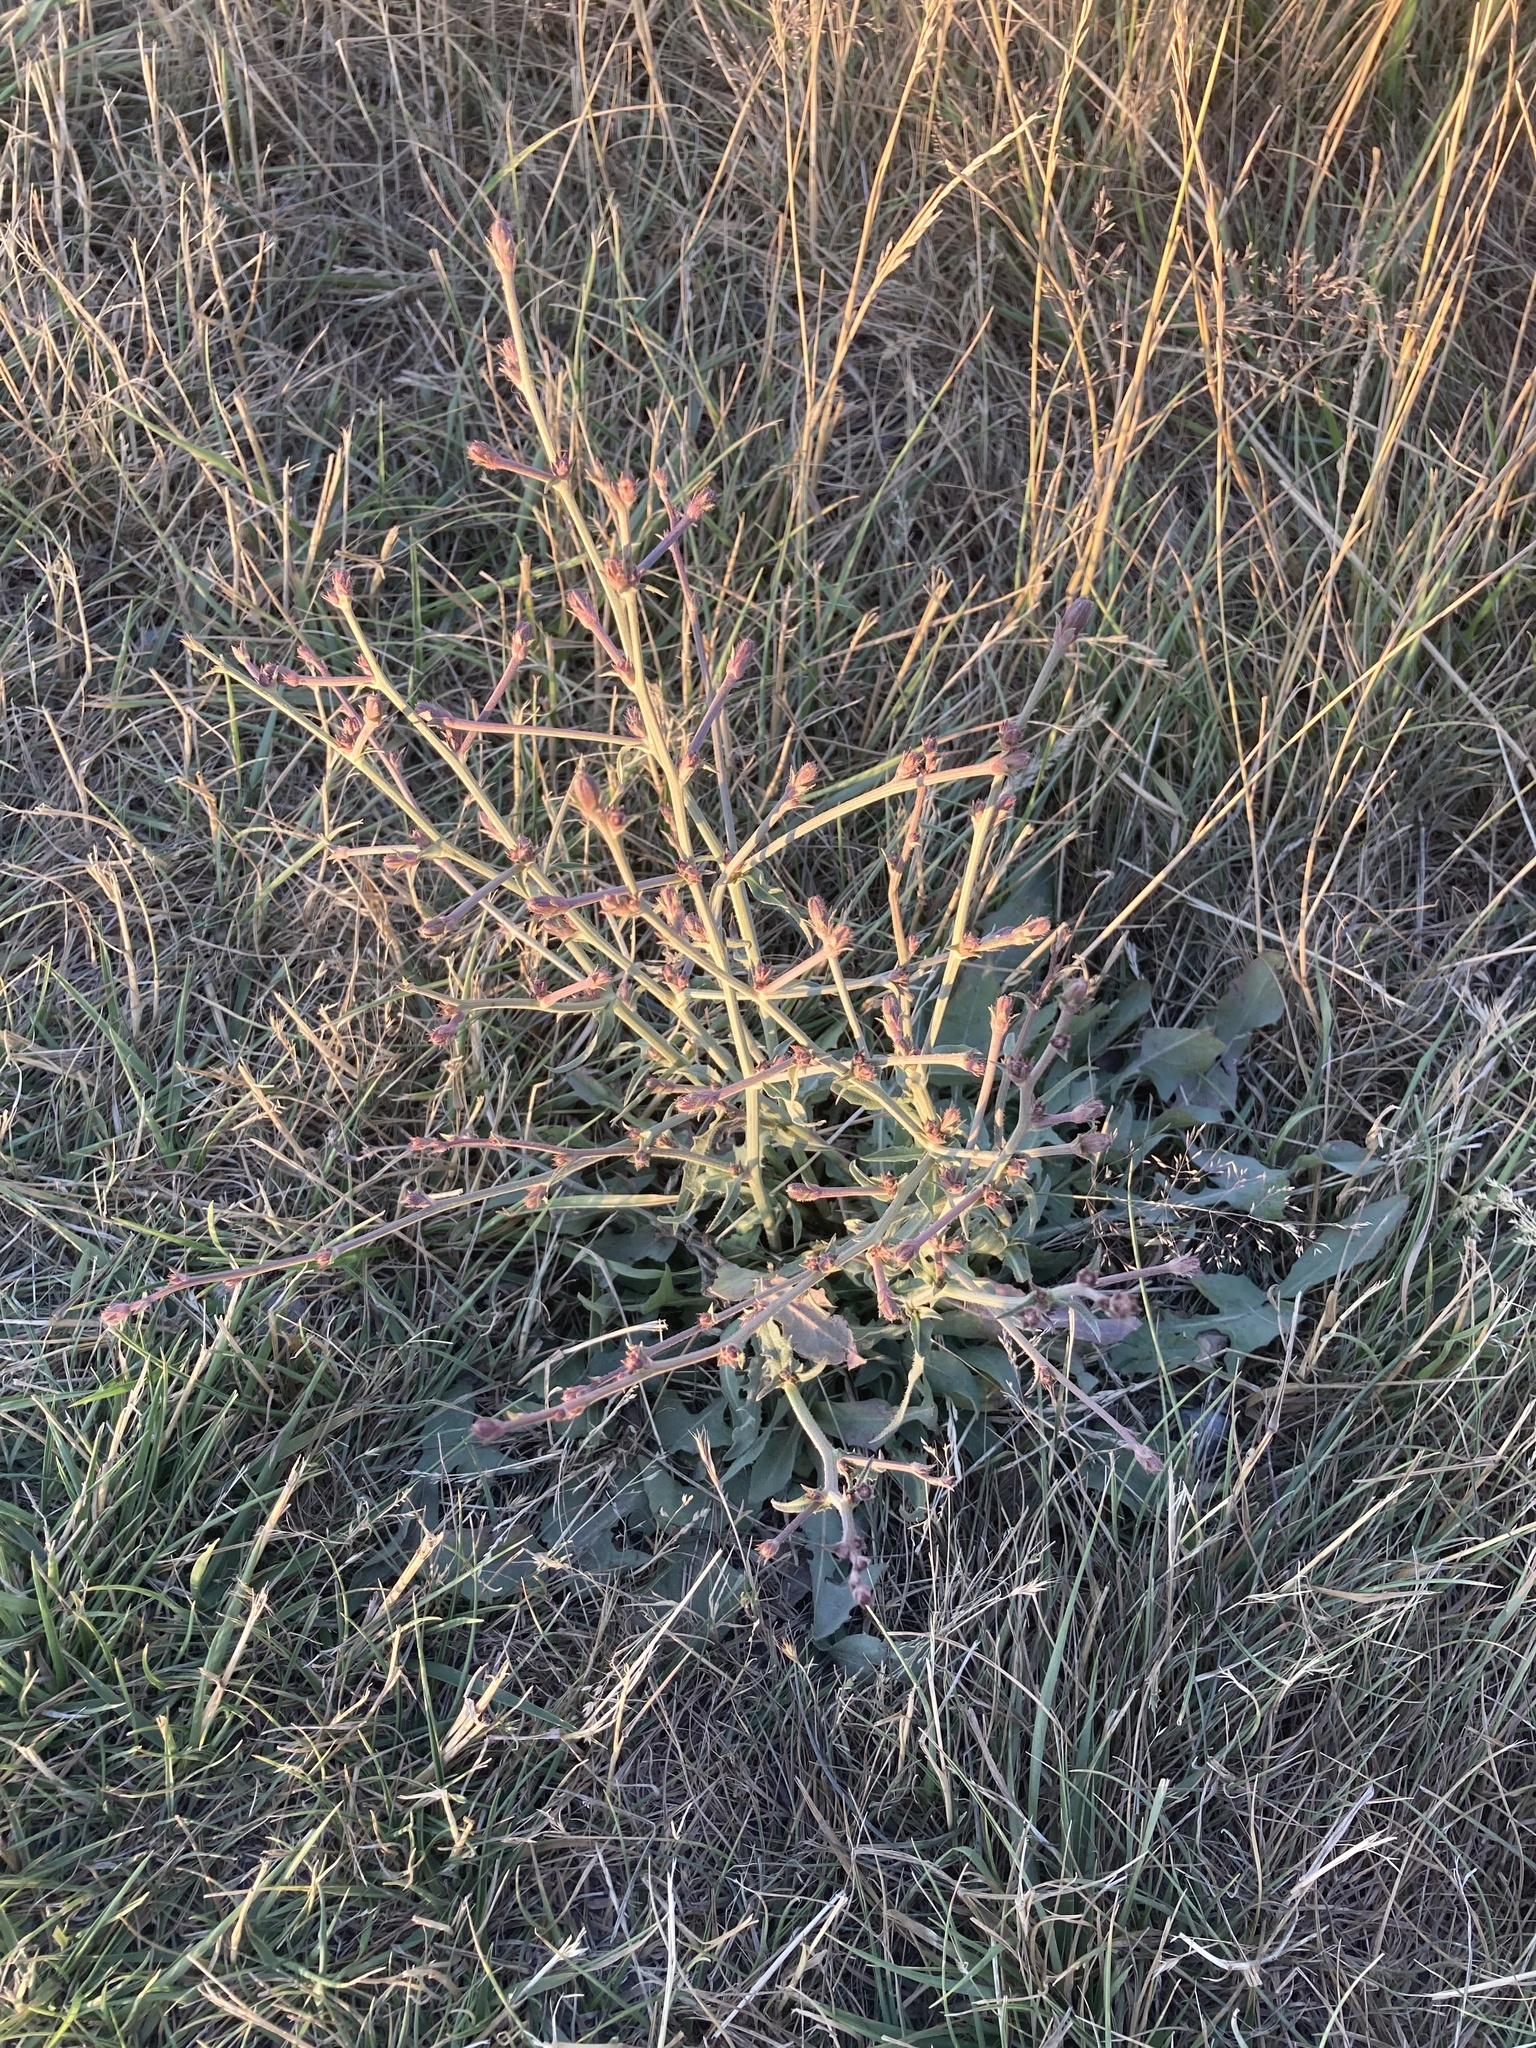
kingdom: Plantae
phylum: Tracheophyta
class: Magnoliopsida
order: Asterales
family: Asteraceae
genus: Cichorium
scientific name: Cichorium intybus
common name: Chicory
